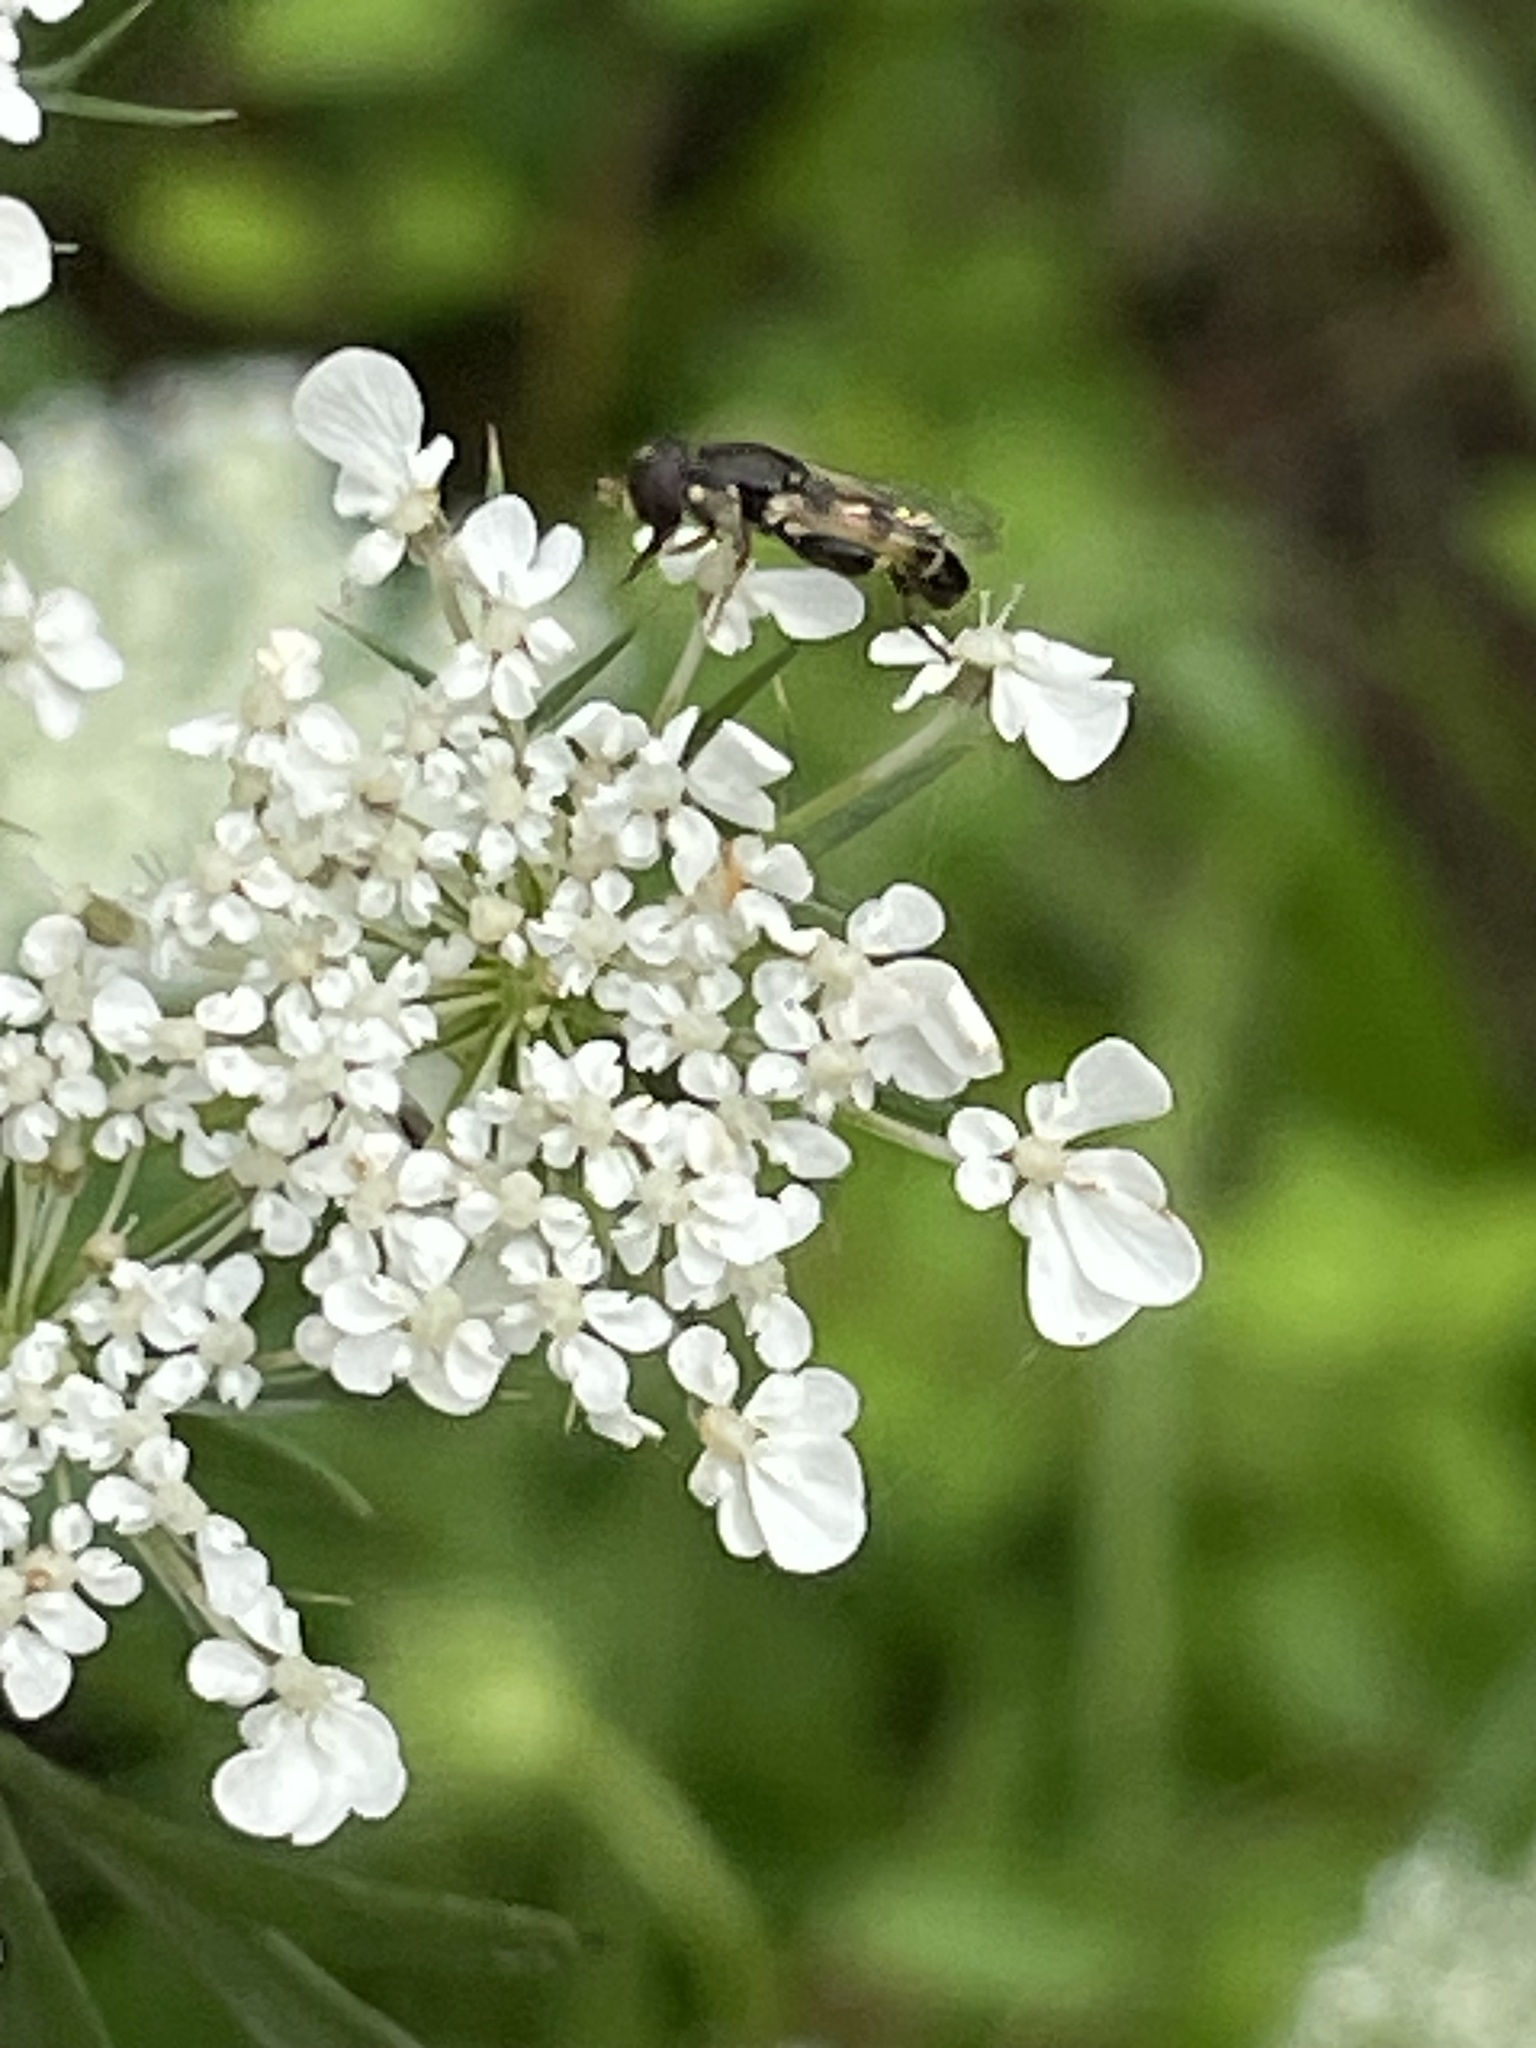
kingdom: Animalia
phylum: Arthropoda
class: Insecta
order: Diptera
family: Syrphidae
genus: Syritta
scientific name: Syritta pipiens
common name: Hover fly
